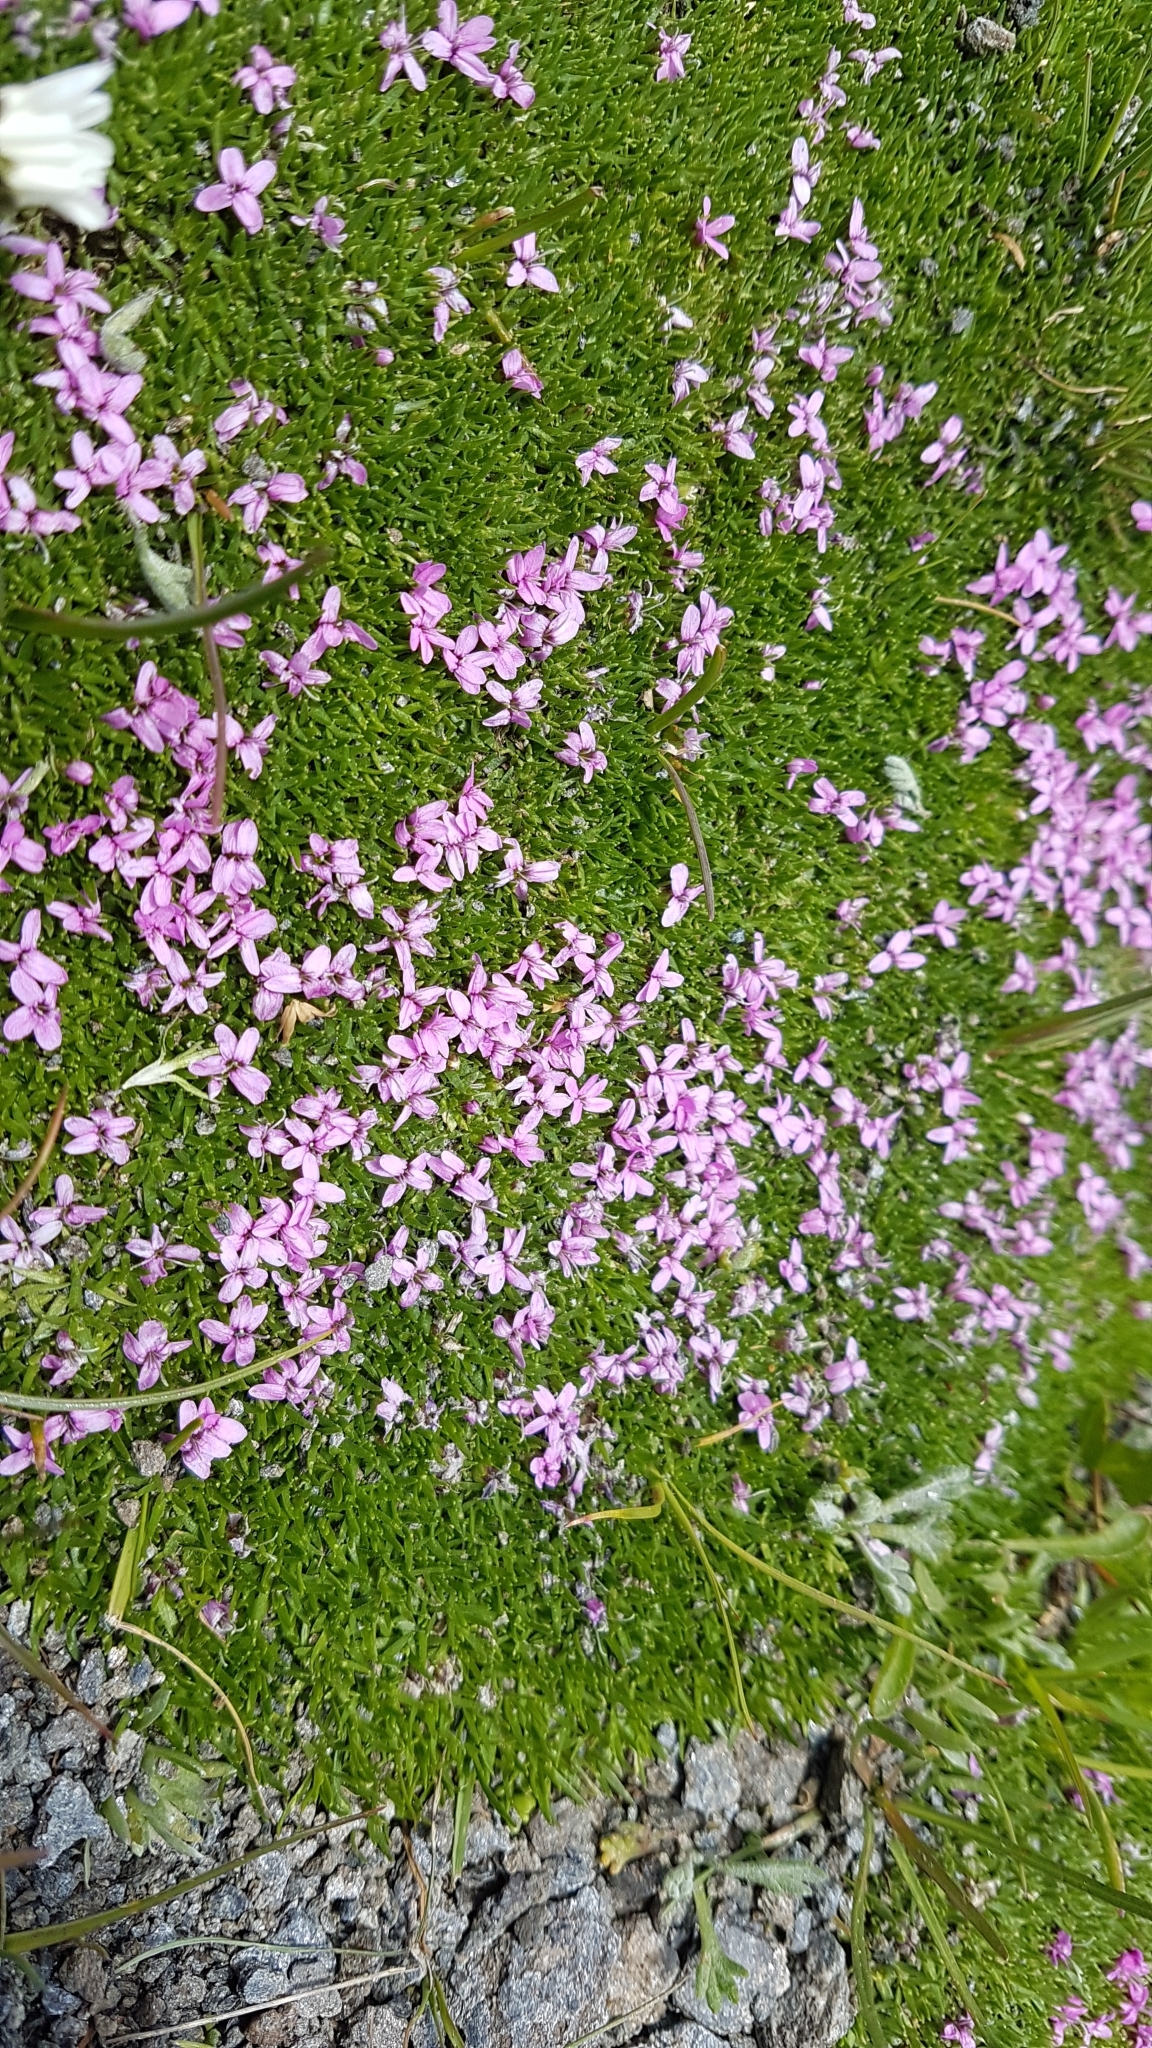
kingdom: Plantae
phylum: Tracheophyta
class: Magnoliopsida
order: Caryophyllales
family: Caryophyllaceae
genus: Silene
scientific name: Silene acaulis
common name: Moss campion
